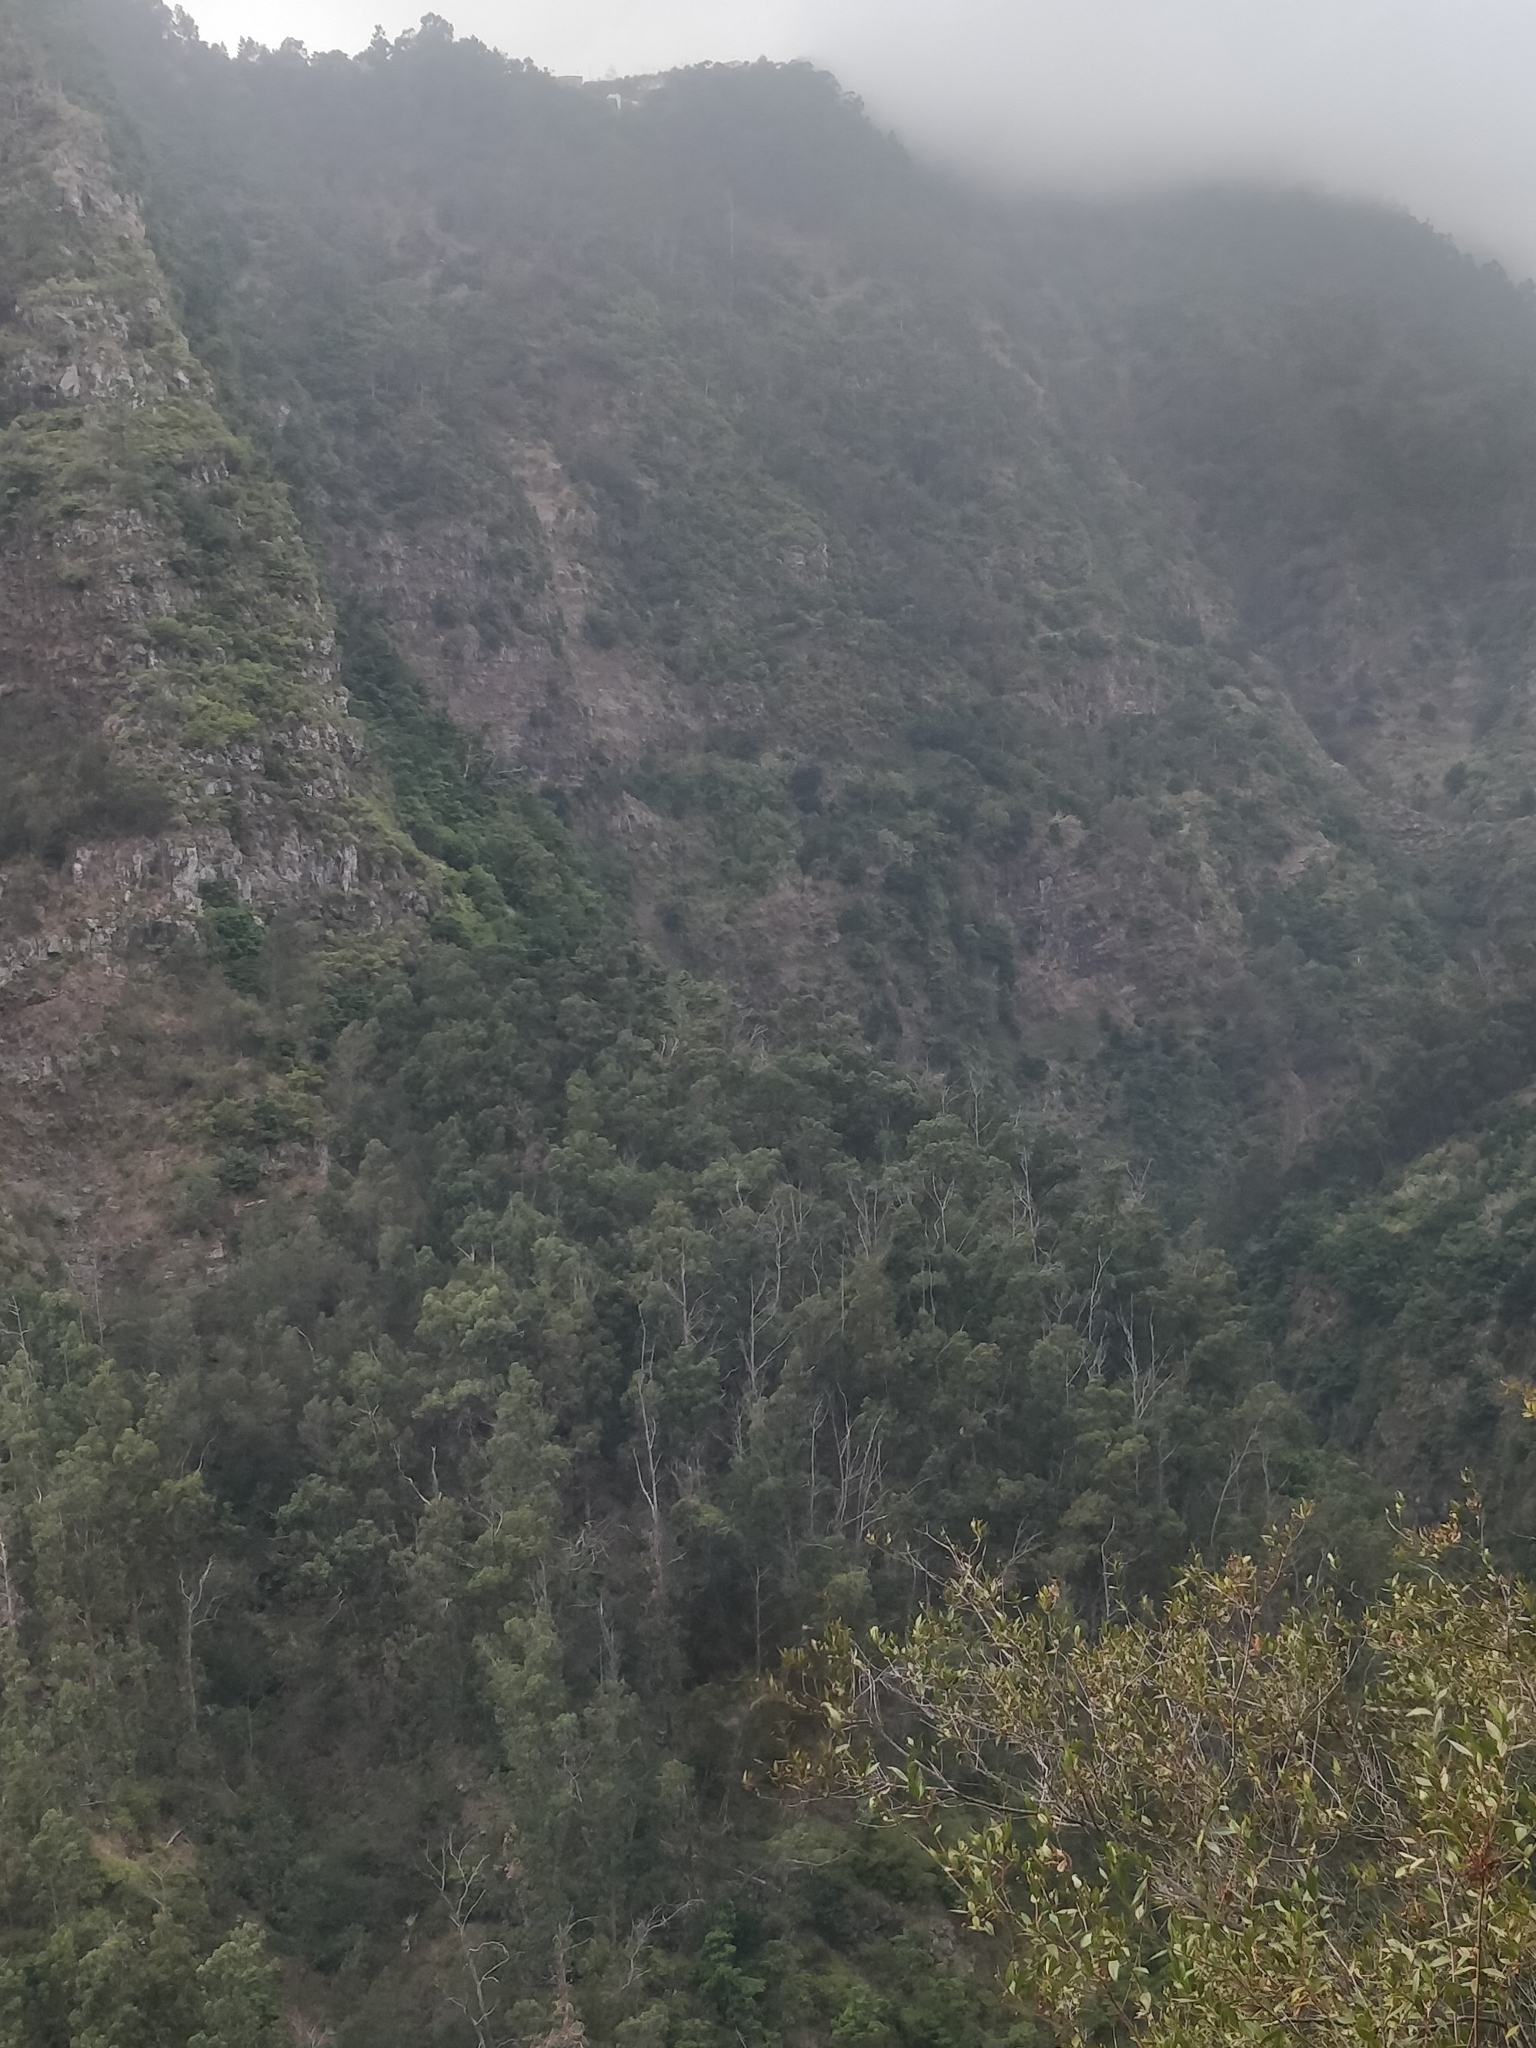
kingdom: Plantae
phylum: Tracheophyta
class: Magnoliopsida
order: Myrtales
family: Myrtaceae
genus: Eucalyptus
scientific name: Eucalyptus globulus
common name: Southern blue-gum
